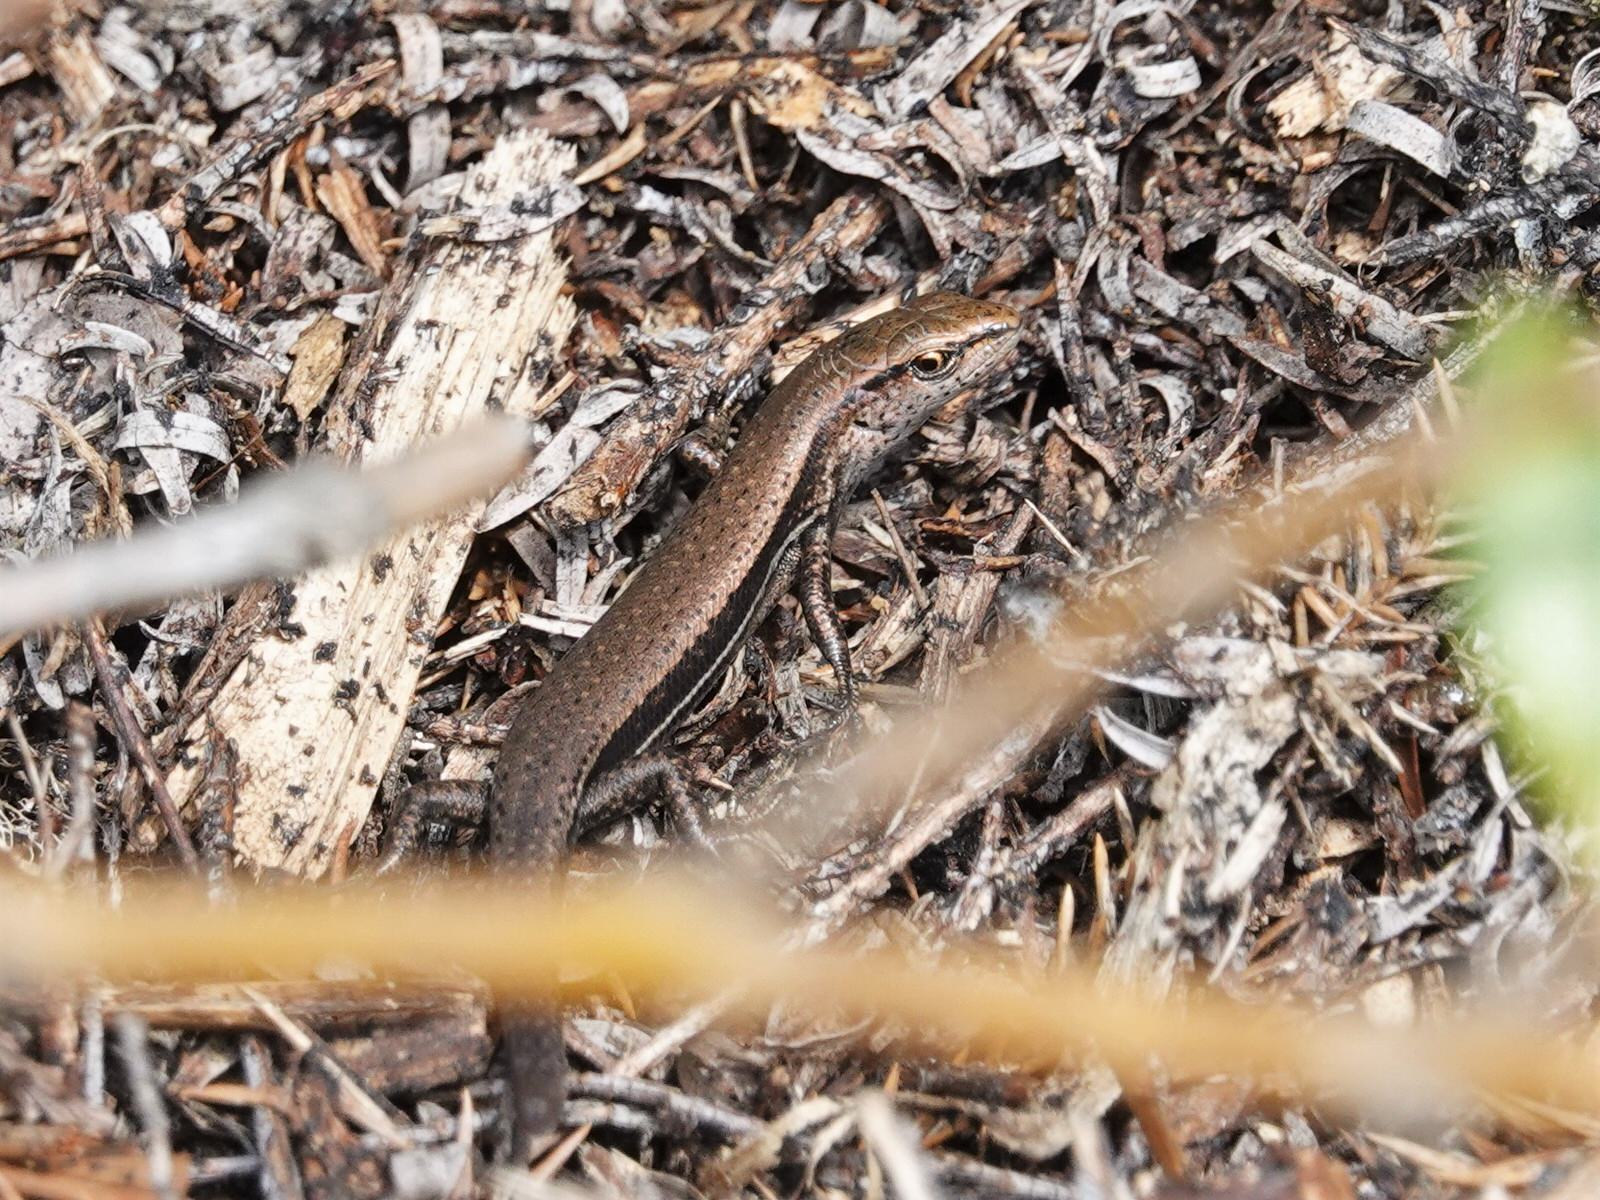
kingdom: Animalia
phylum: Chordata
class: Squamata
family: Scincidae
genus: Lampropholis
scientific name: Lampropholis delicata
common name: Plague skink
